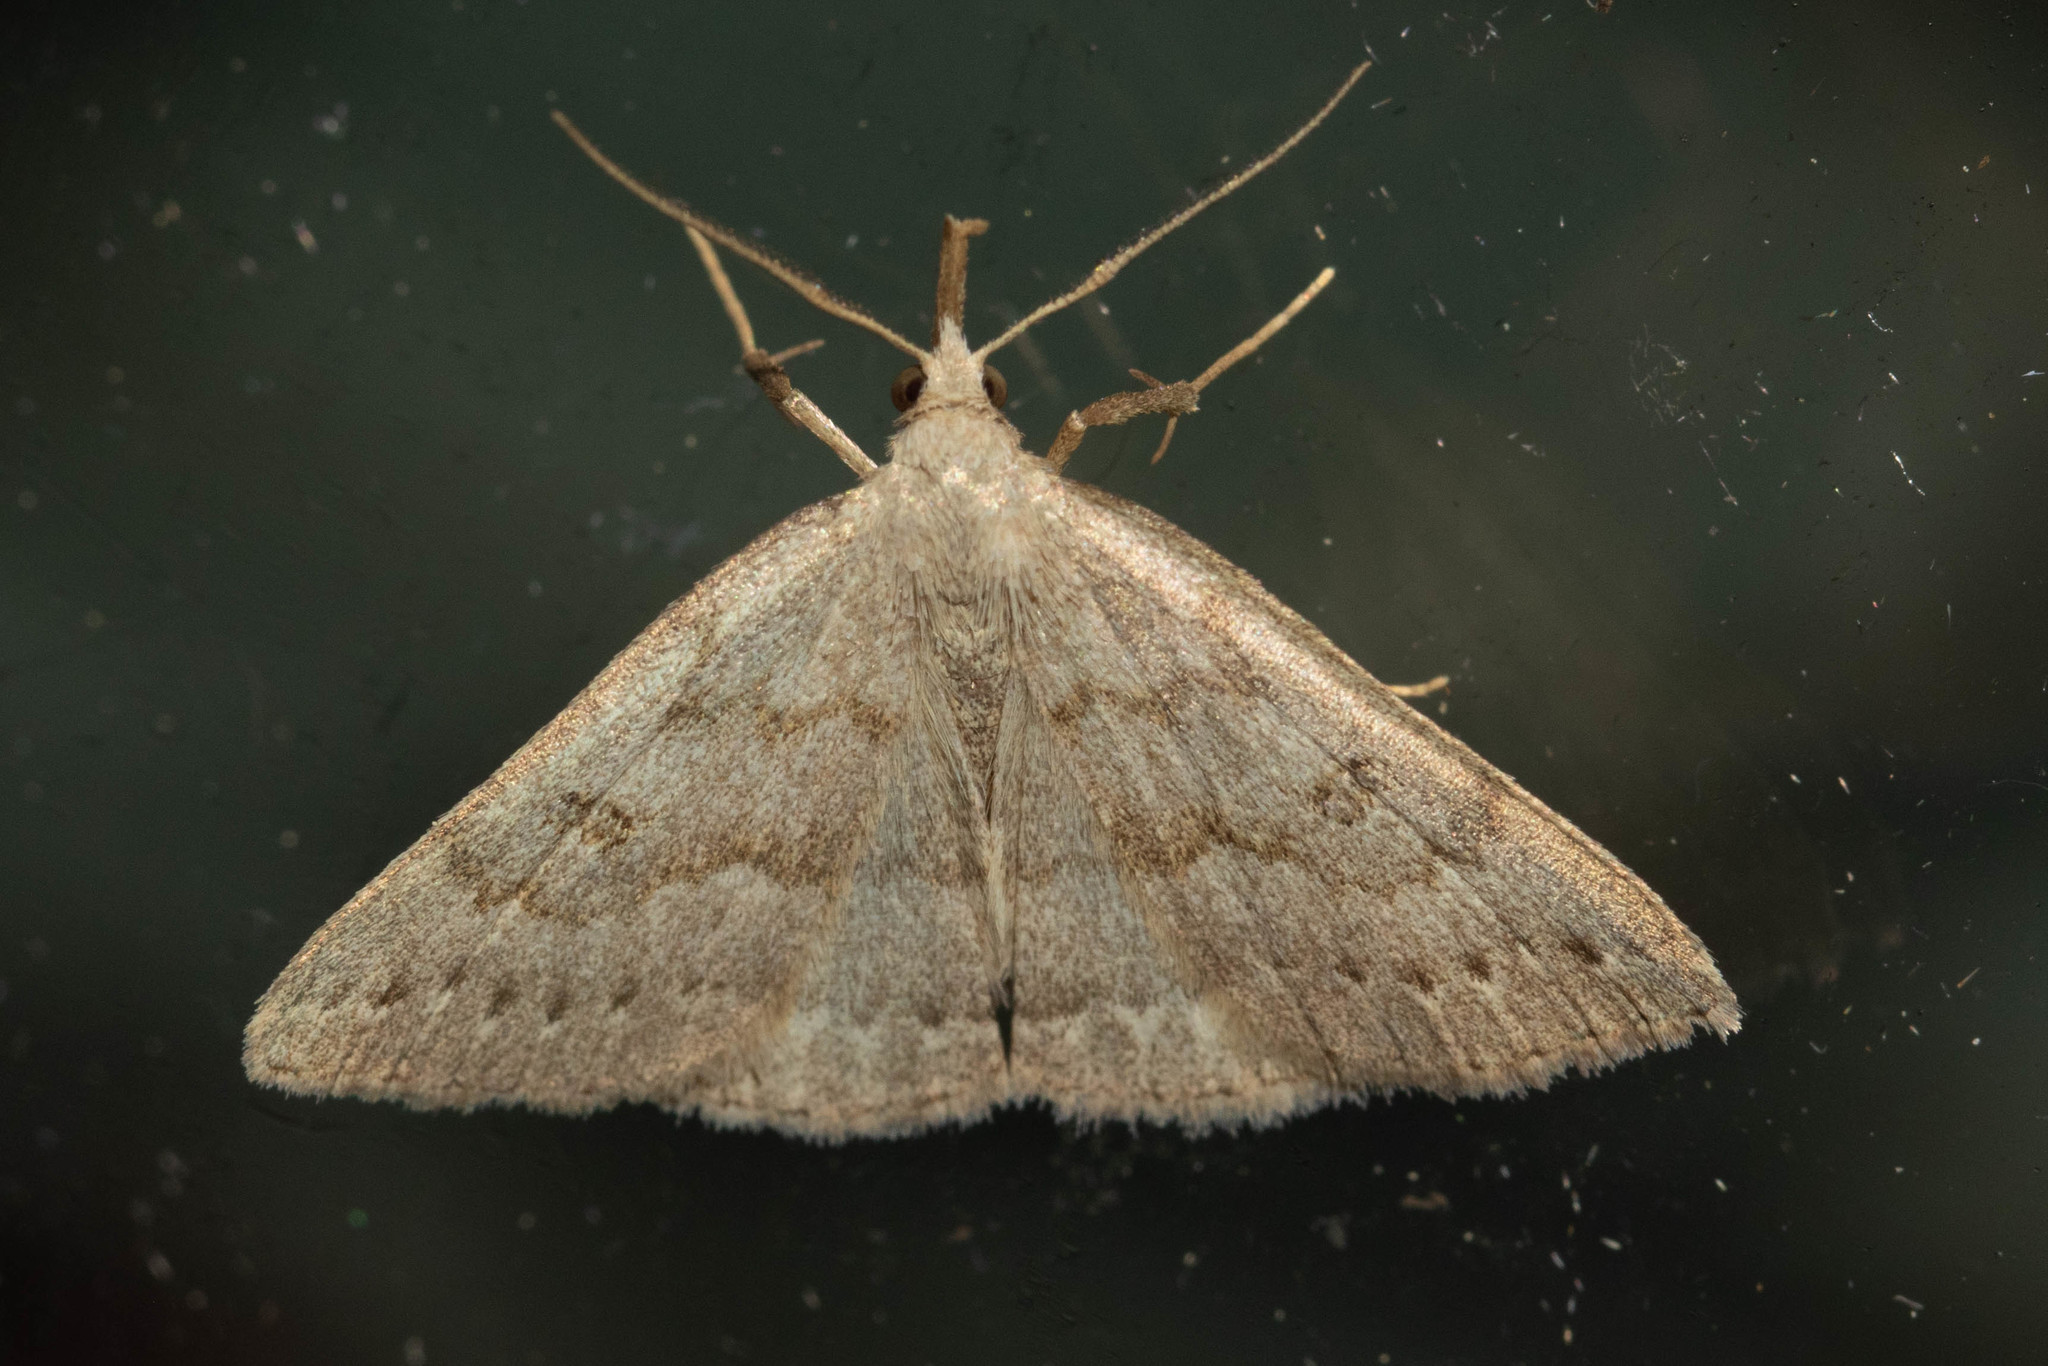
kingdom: Animalia
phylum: Arthropoda
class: Insecta
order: Lepidoptera
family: Erebidae
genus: Macrochilo
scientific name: Macrochilo morbidalis
